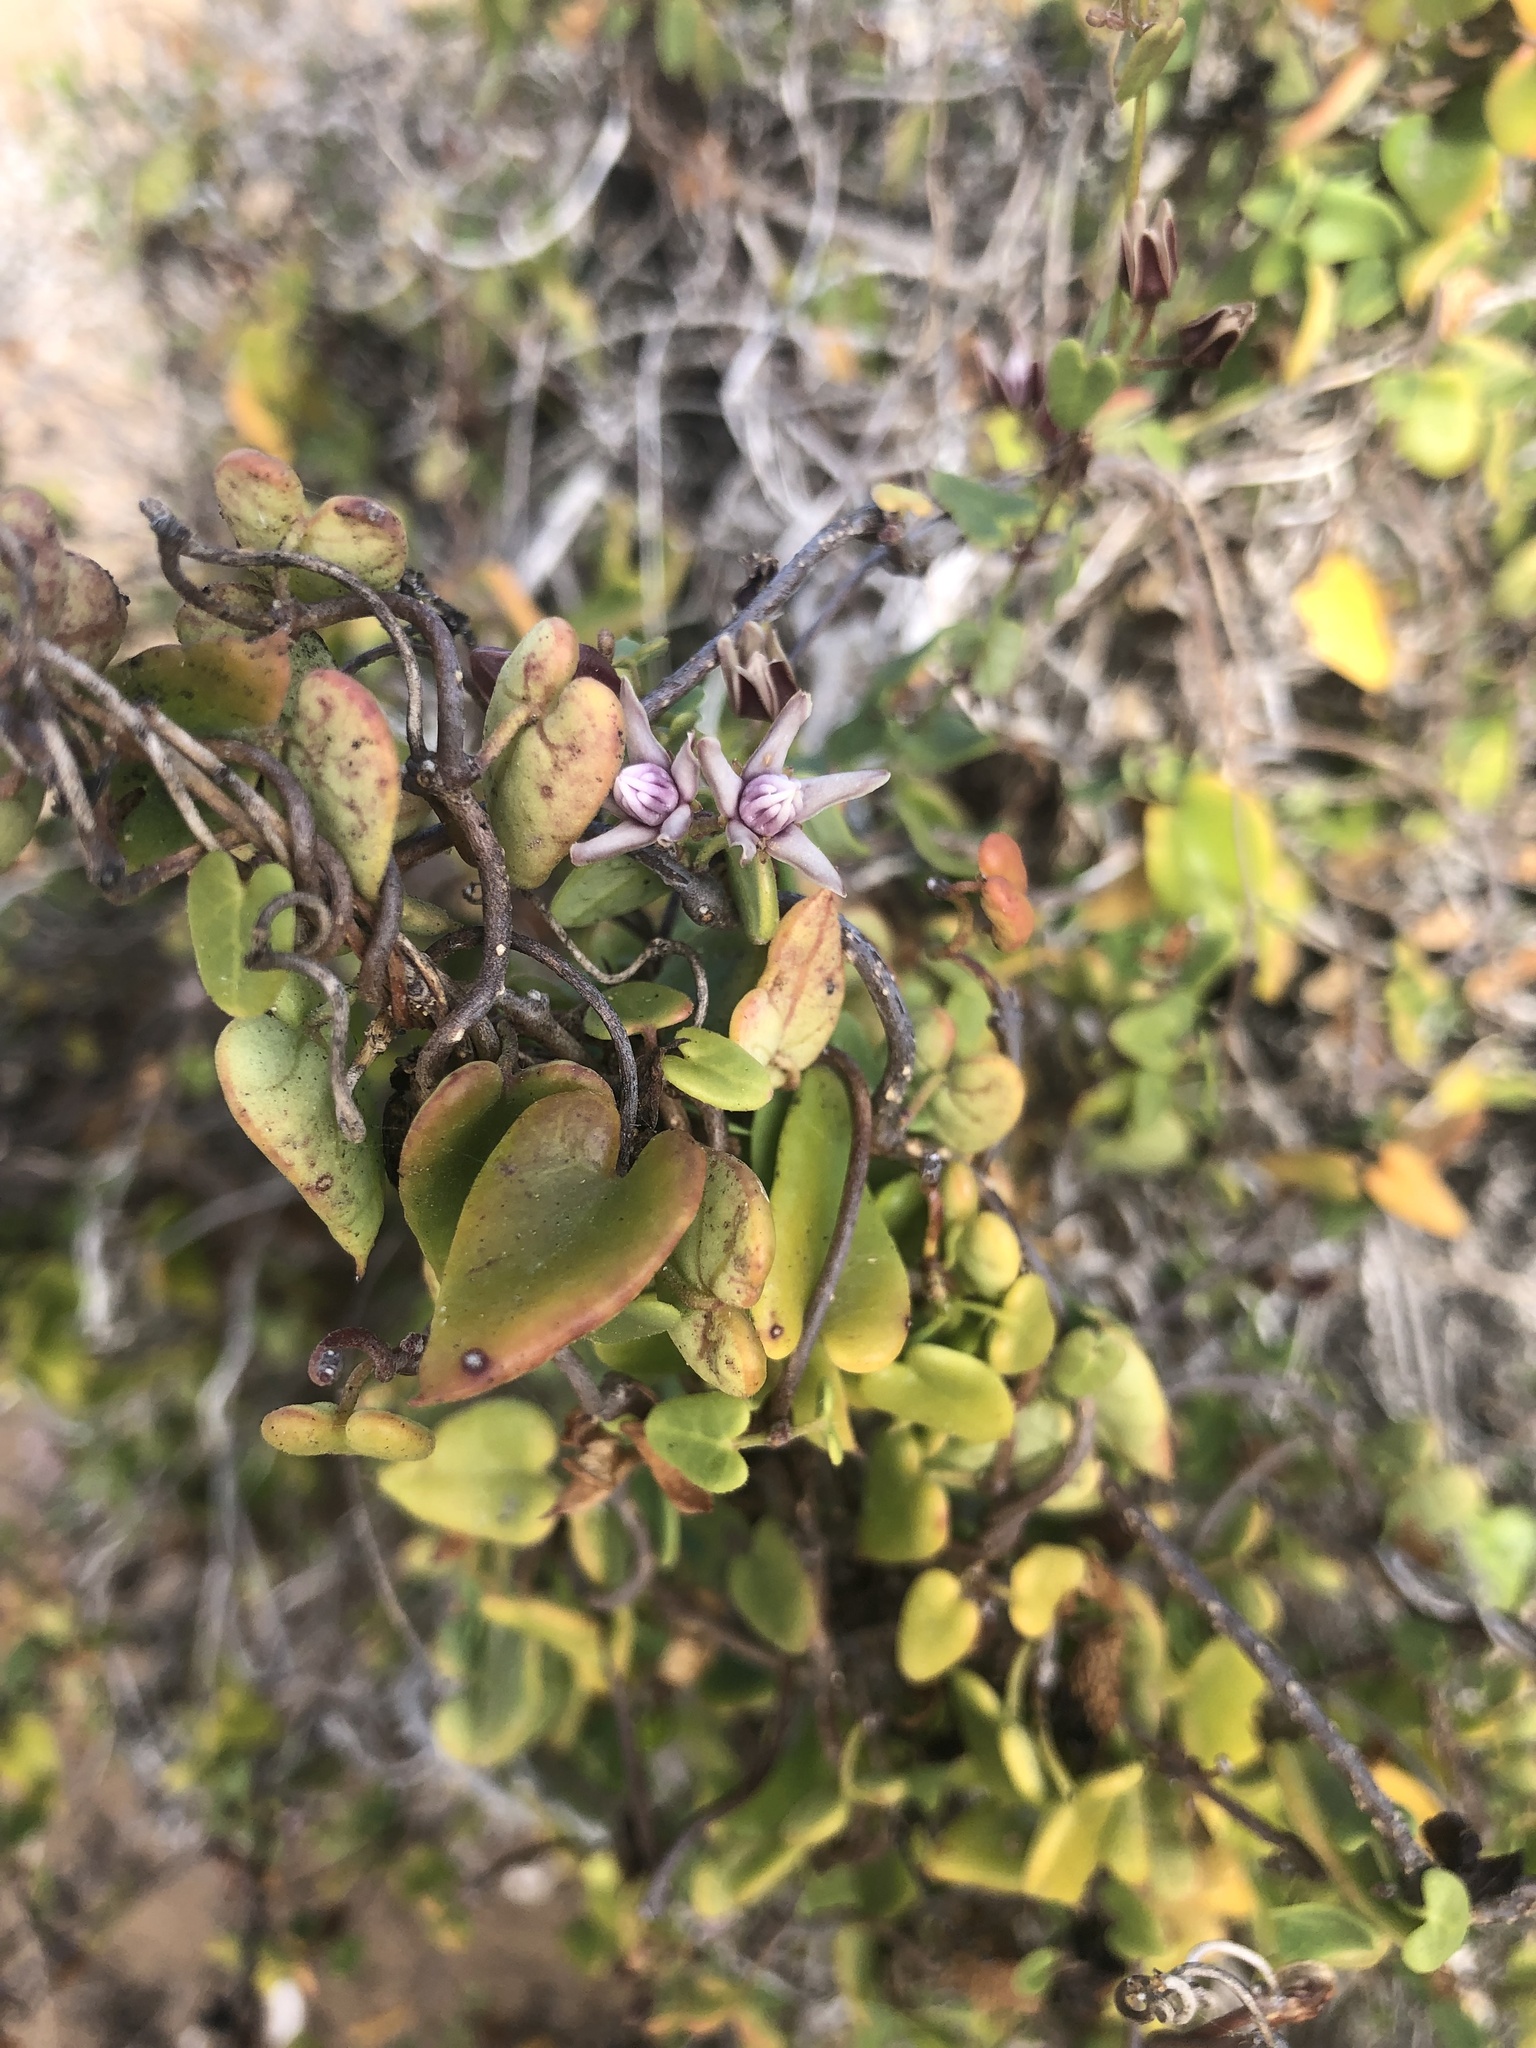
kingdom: Plantae
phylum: Tracheophyta
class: Magnoliopsida
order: Gentianales
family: Apocynaceae
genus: Diplolepis
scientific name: Diplolepis boerhaviifolia
